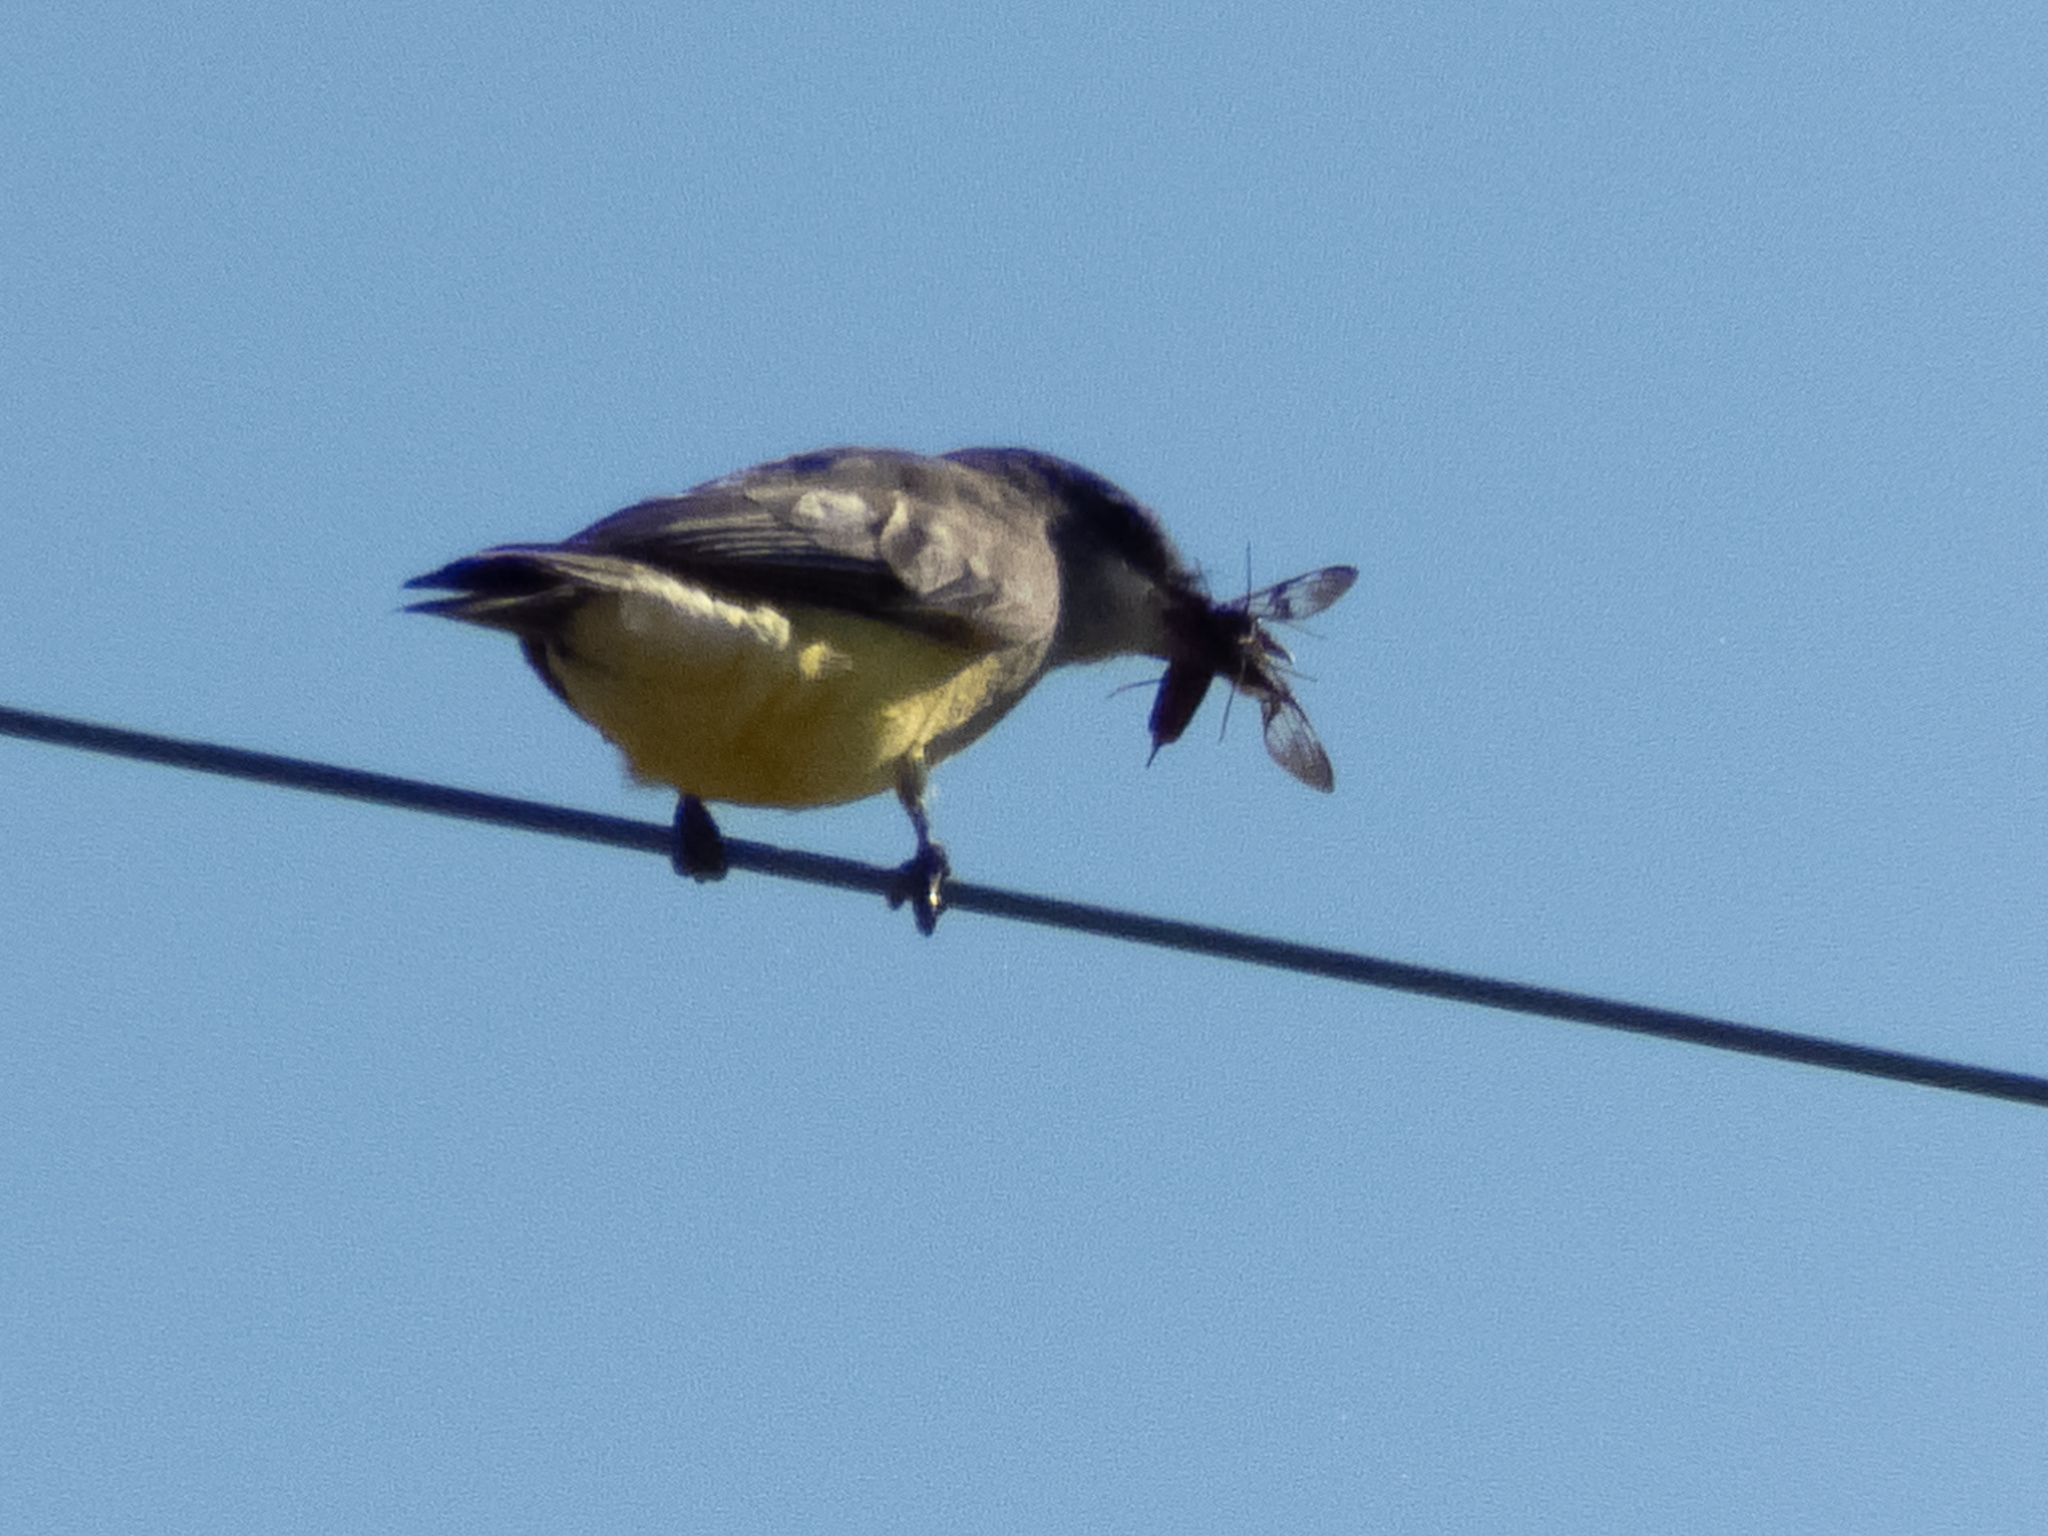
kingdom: Animalia
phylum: Chordata
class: Aves
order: Passeriformes
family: Tyrannidae
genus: Tyrannus
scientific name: Tyrannus vociferans
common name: Cassin's kingbird
